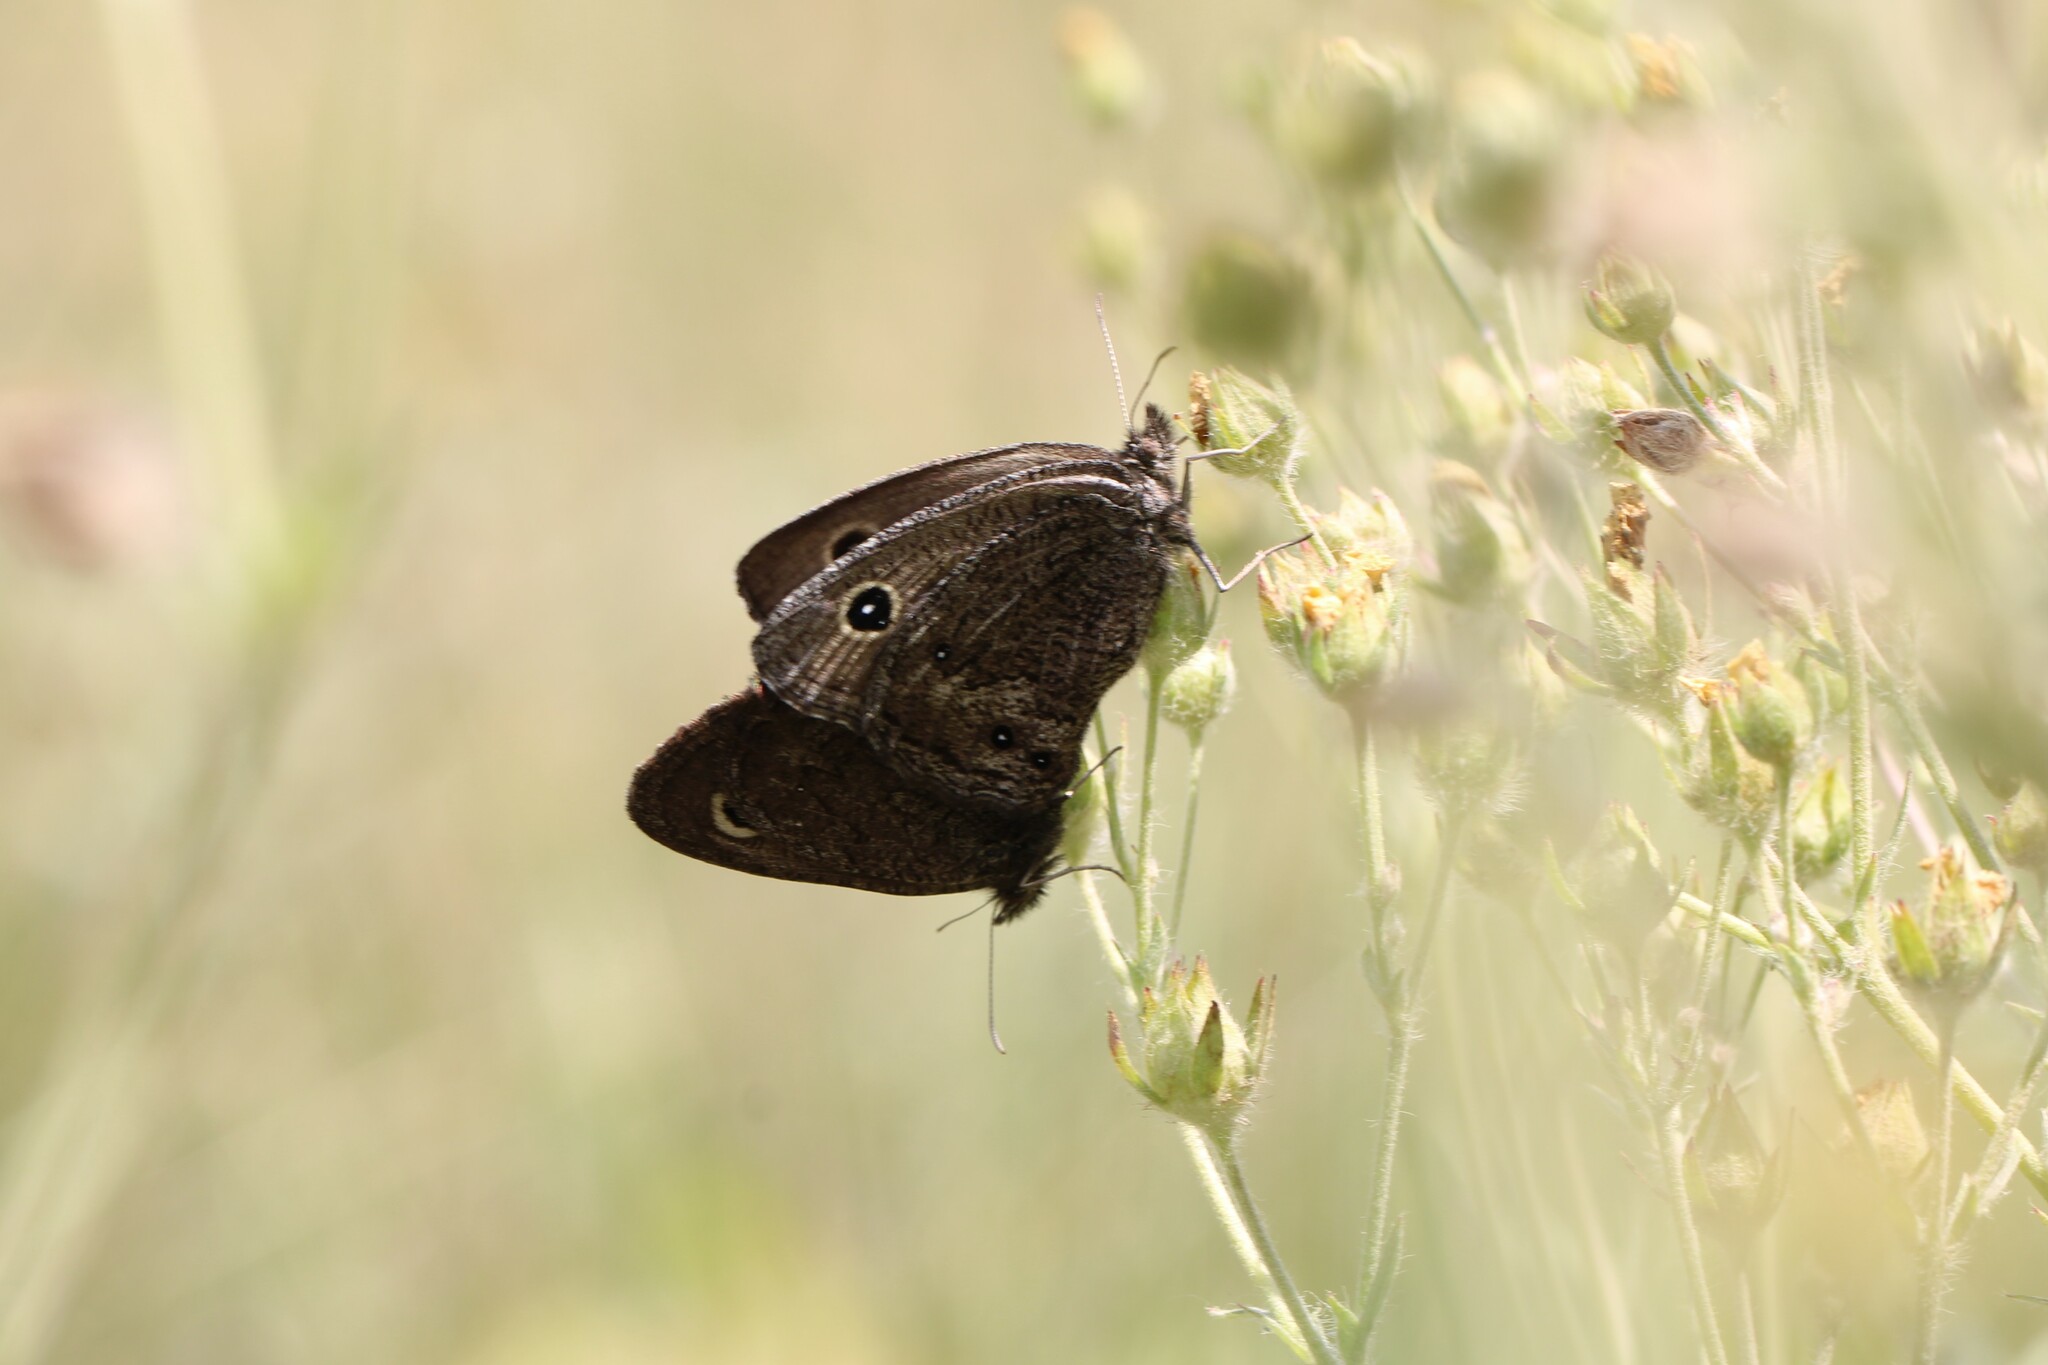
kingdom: Animalia
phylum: Arthropoda
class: Insecta
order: Lepidoptera
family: Nymphalidae
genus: Cercyonis
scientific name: Cercyonis oetus
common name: Small wood-nymph
